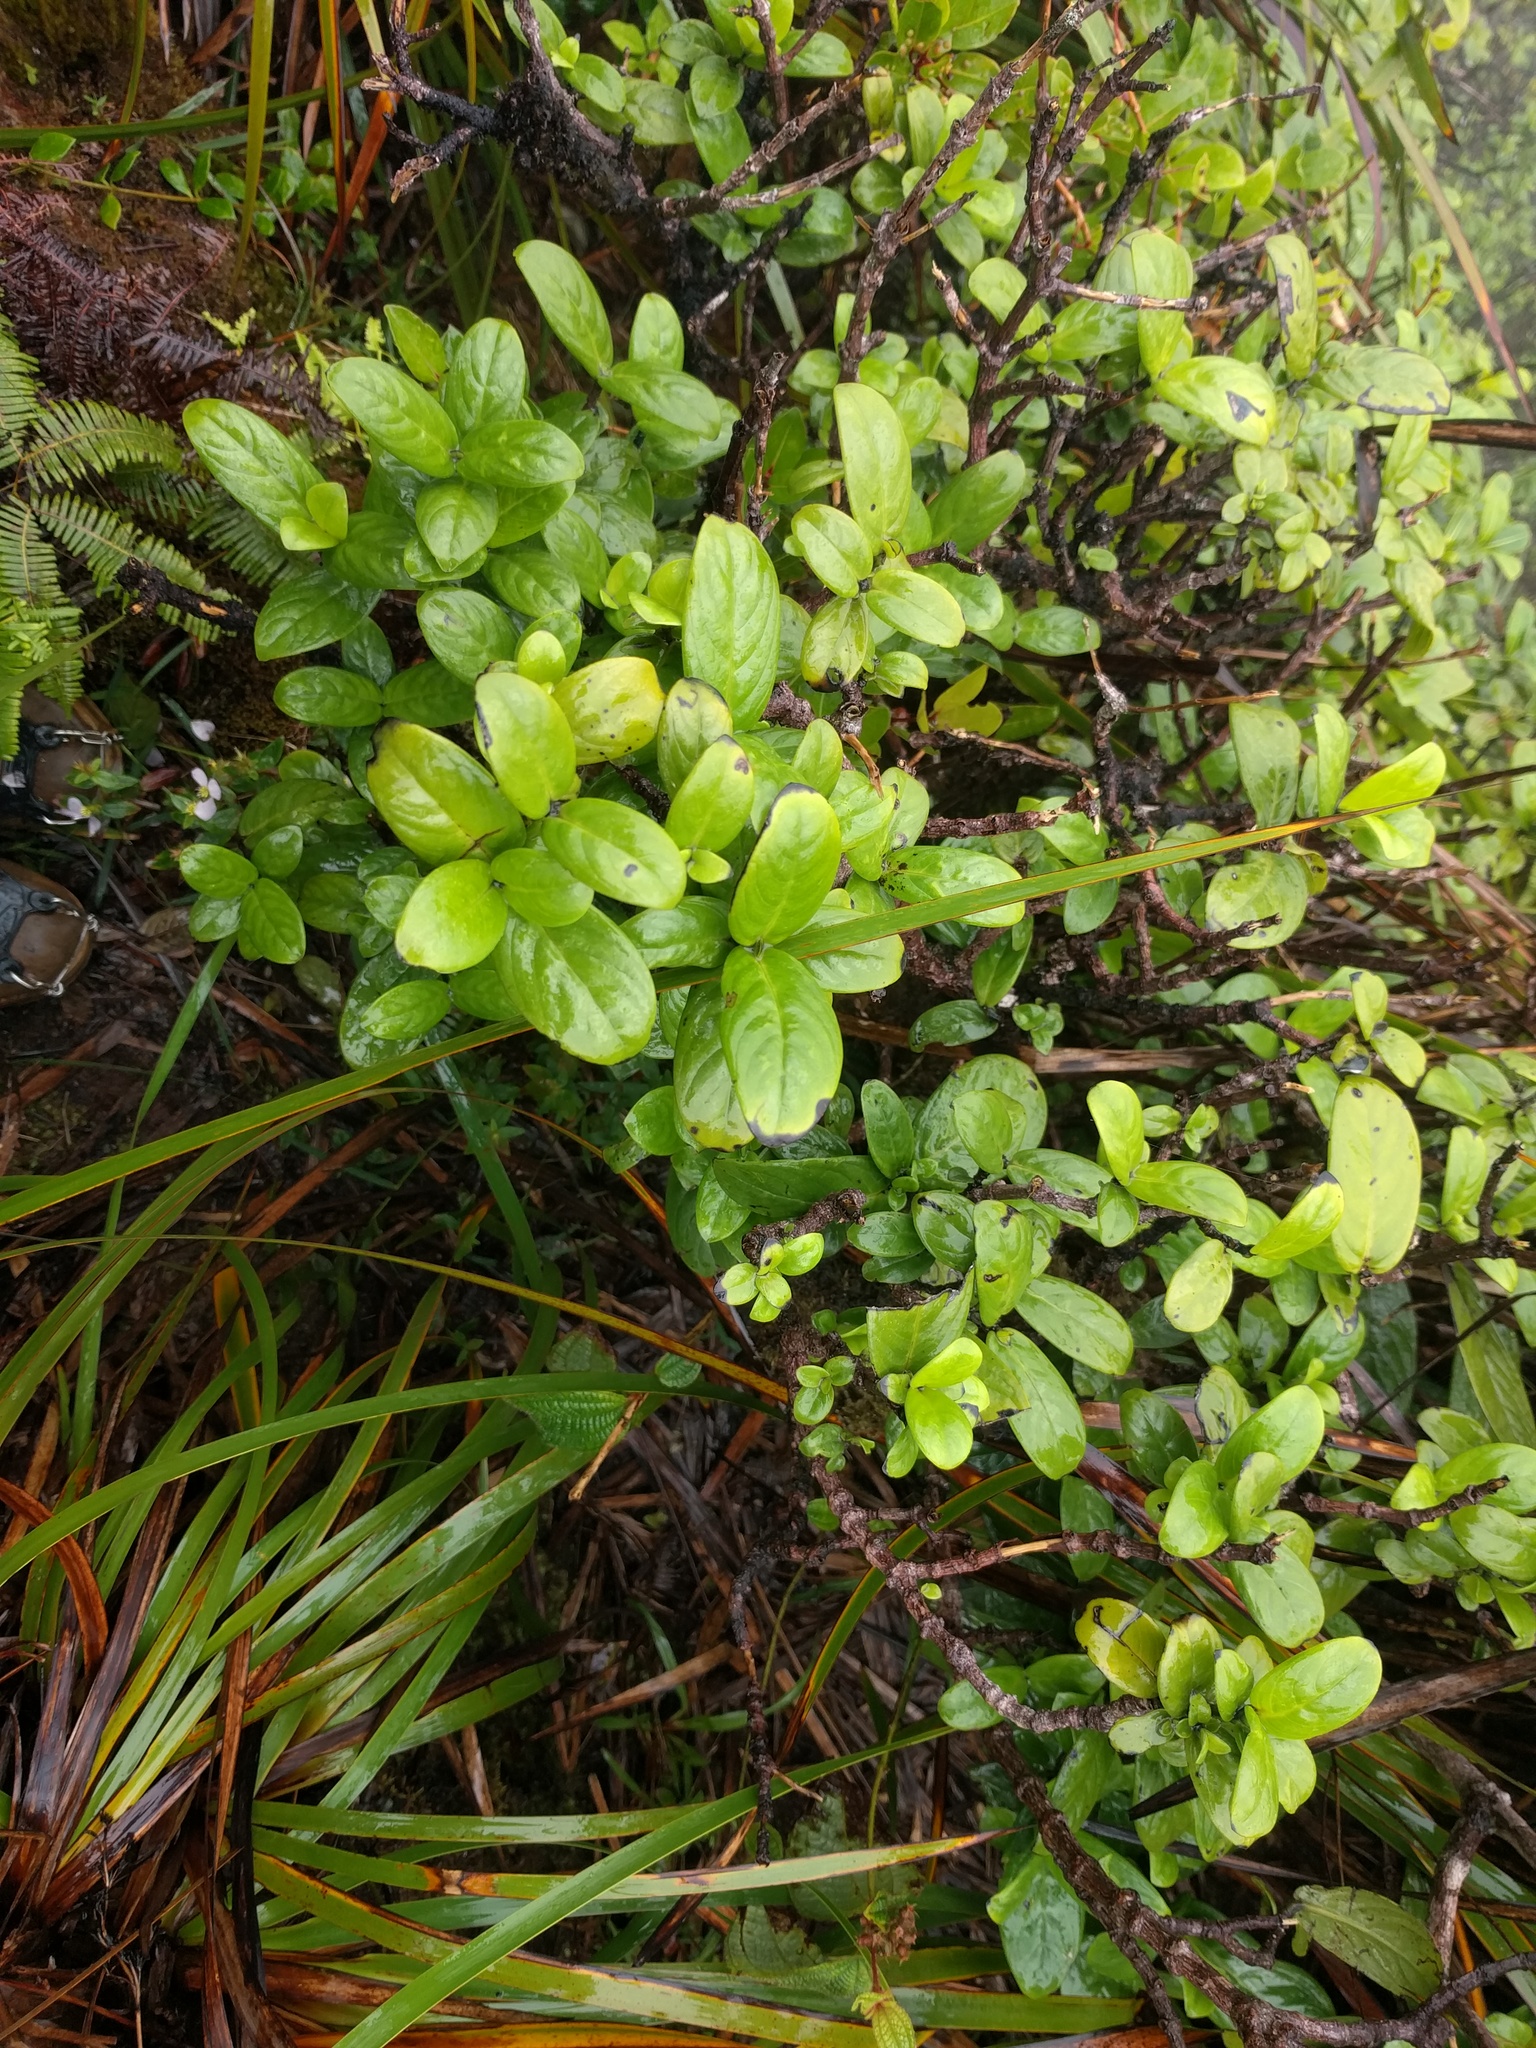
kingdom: Plantae
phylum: Tracheophyta
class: Magnoliopsida
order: Gentianales
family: Rubiaceae
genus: Kadua
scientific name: Kadua munroi
